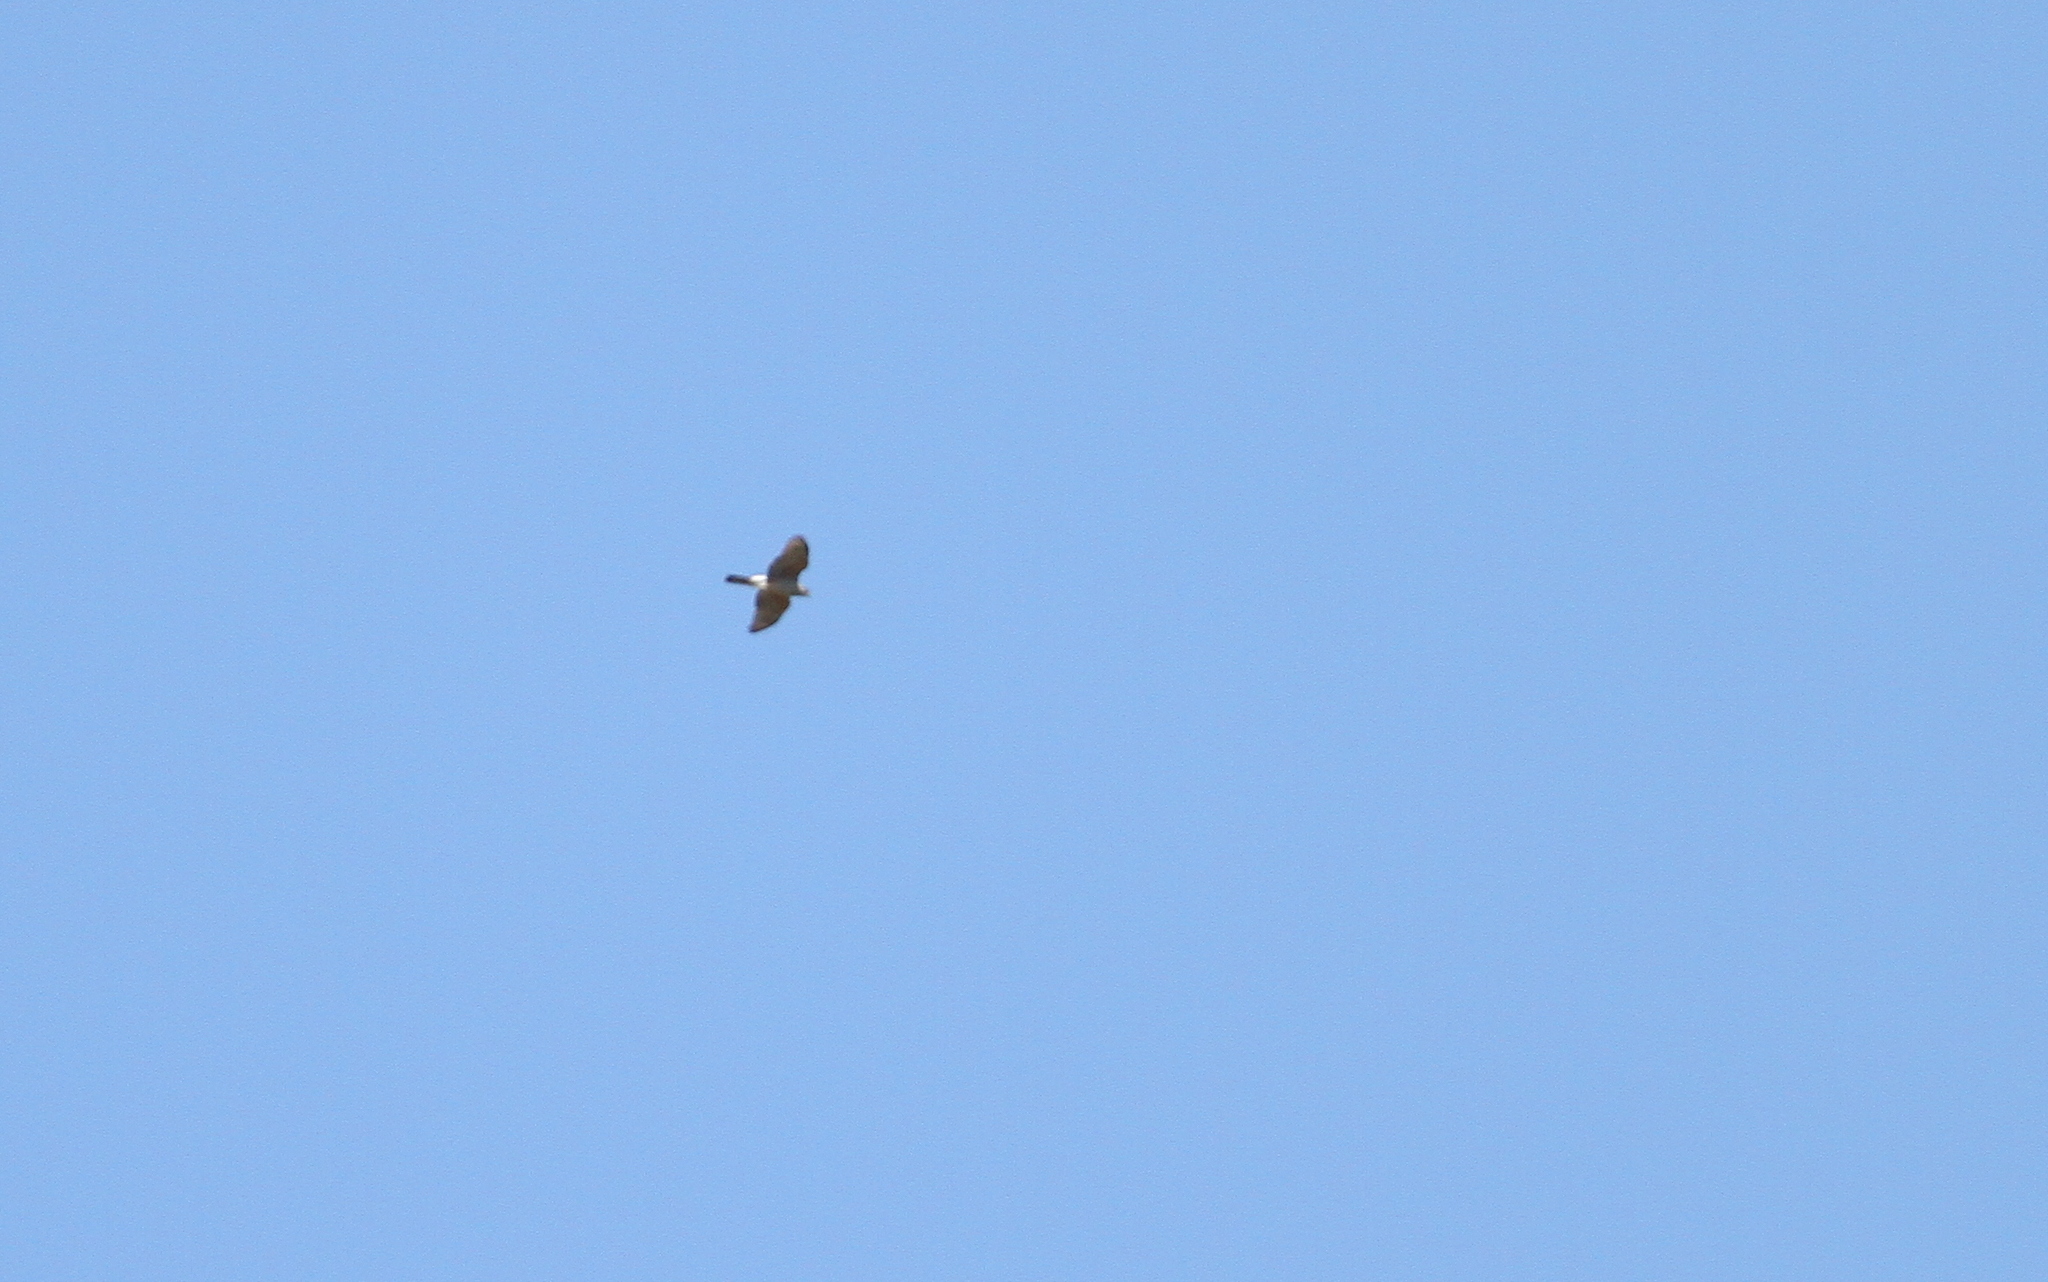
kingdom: Animalia
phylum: Chordata
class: Aves
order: Accipitriformes
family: Accipitridae
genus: Accipiter
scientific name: Accipiter gundlachi
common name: Gundlach's hawk
